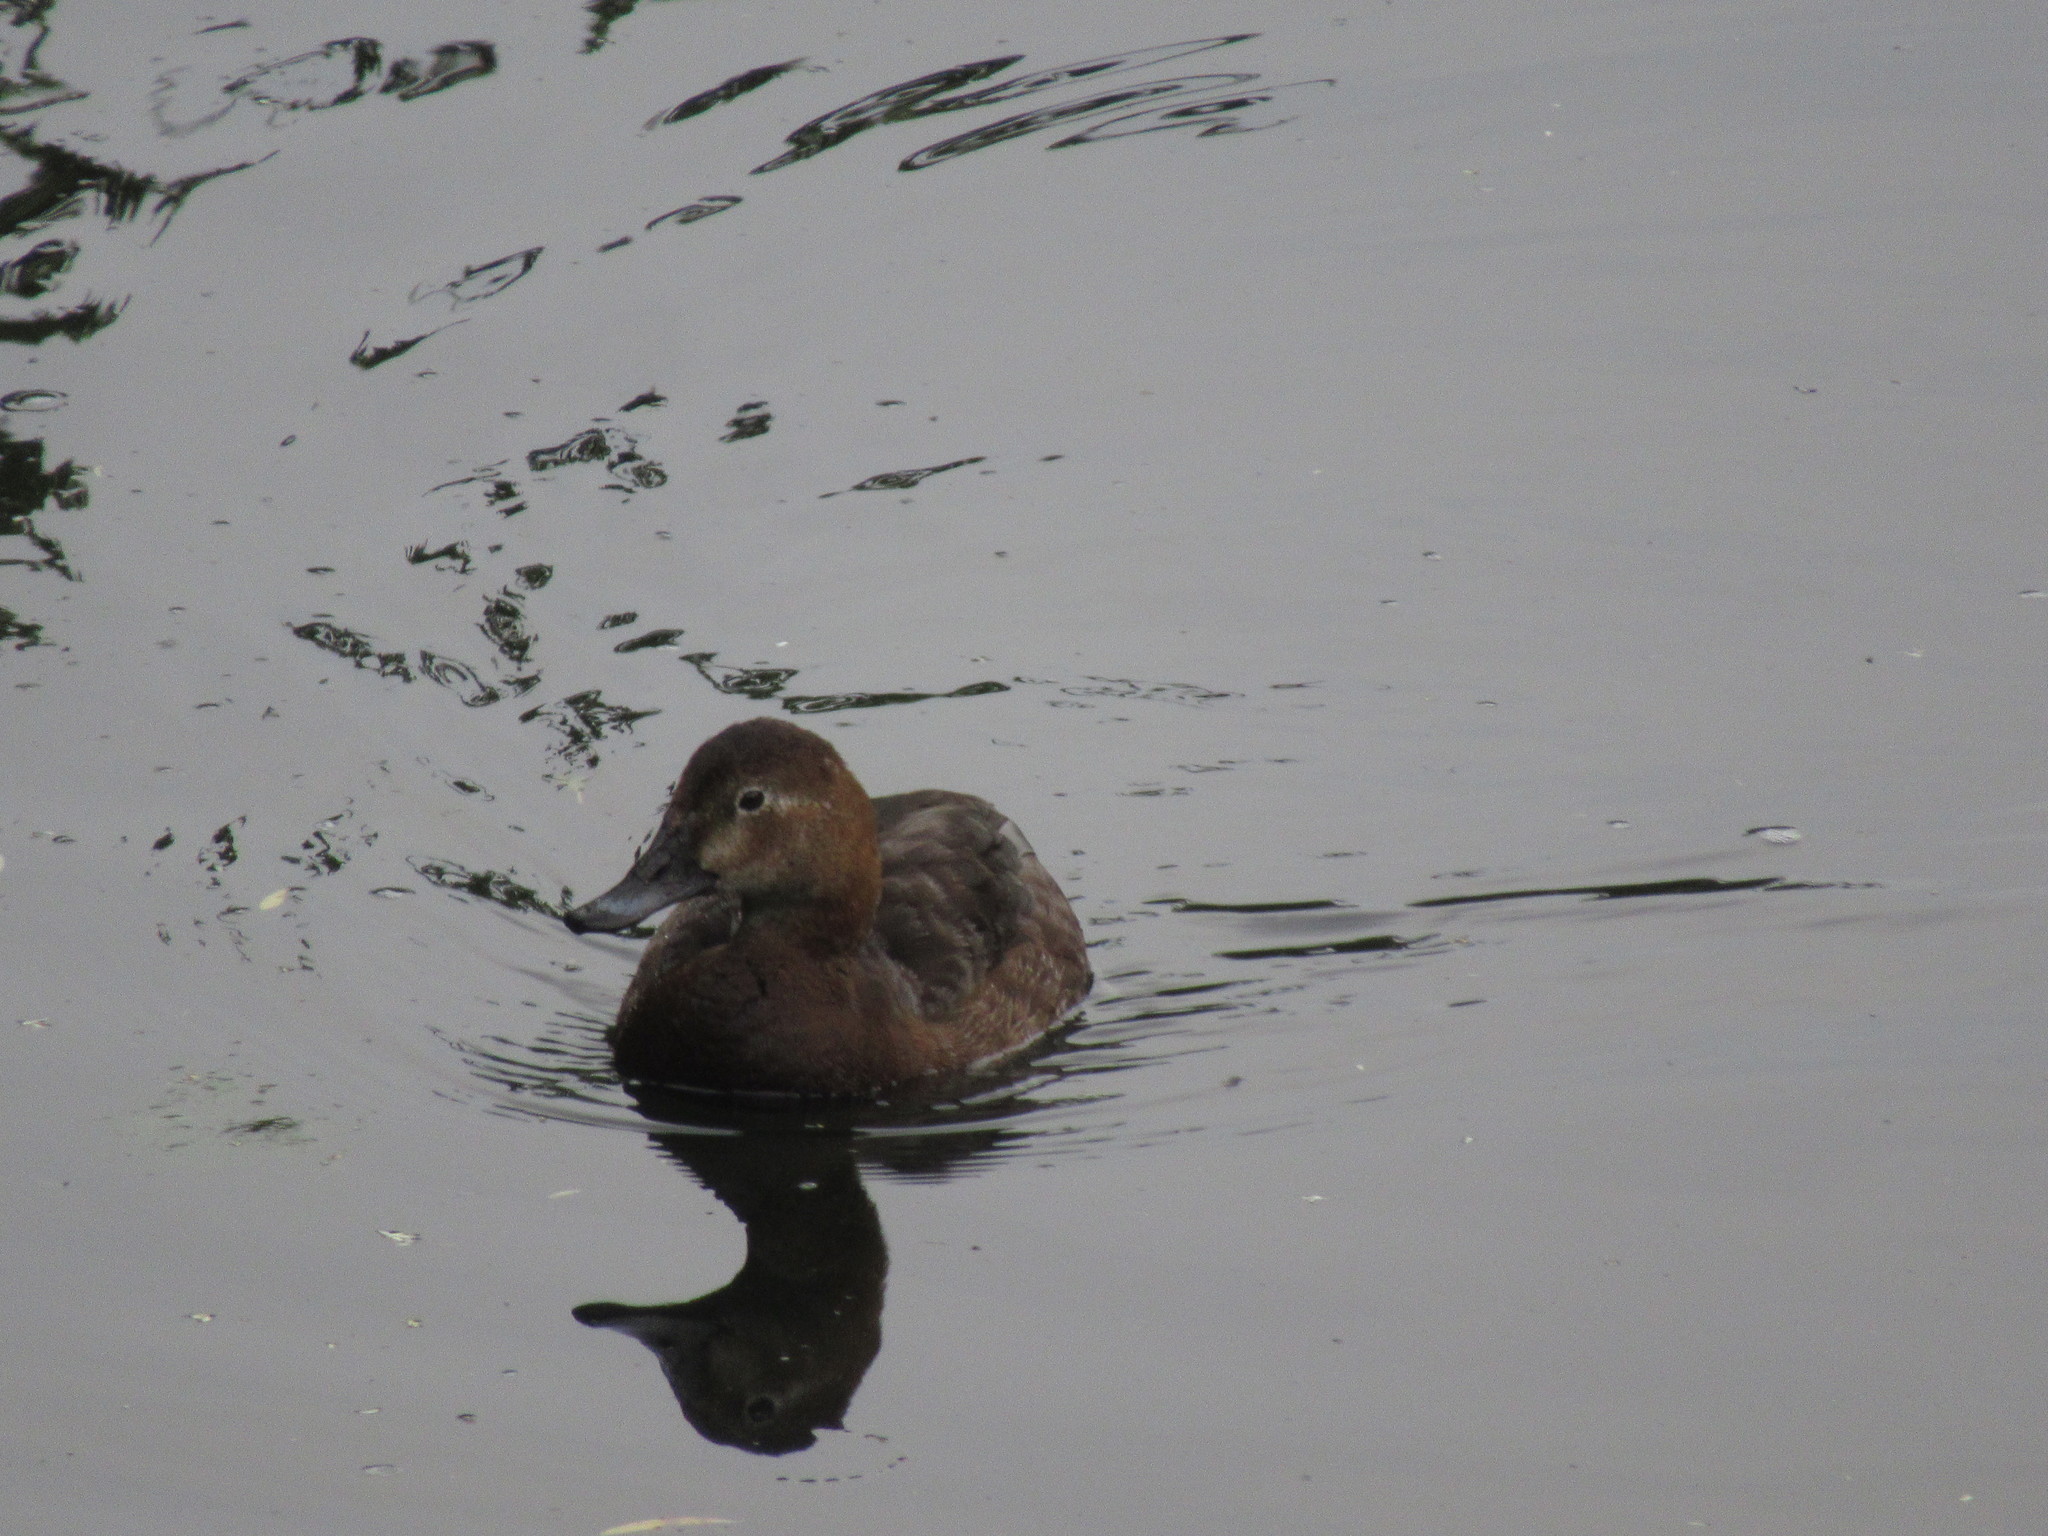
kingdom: Animalia
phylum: Chordata
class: Aves
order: Anseriformes
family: Anatidae
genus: Aythya
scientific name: Aythya ferina
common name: Common pochard
